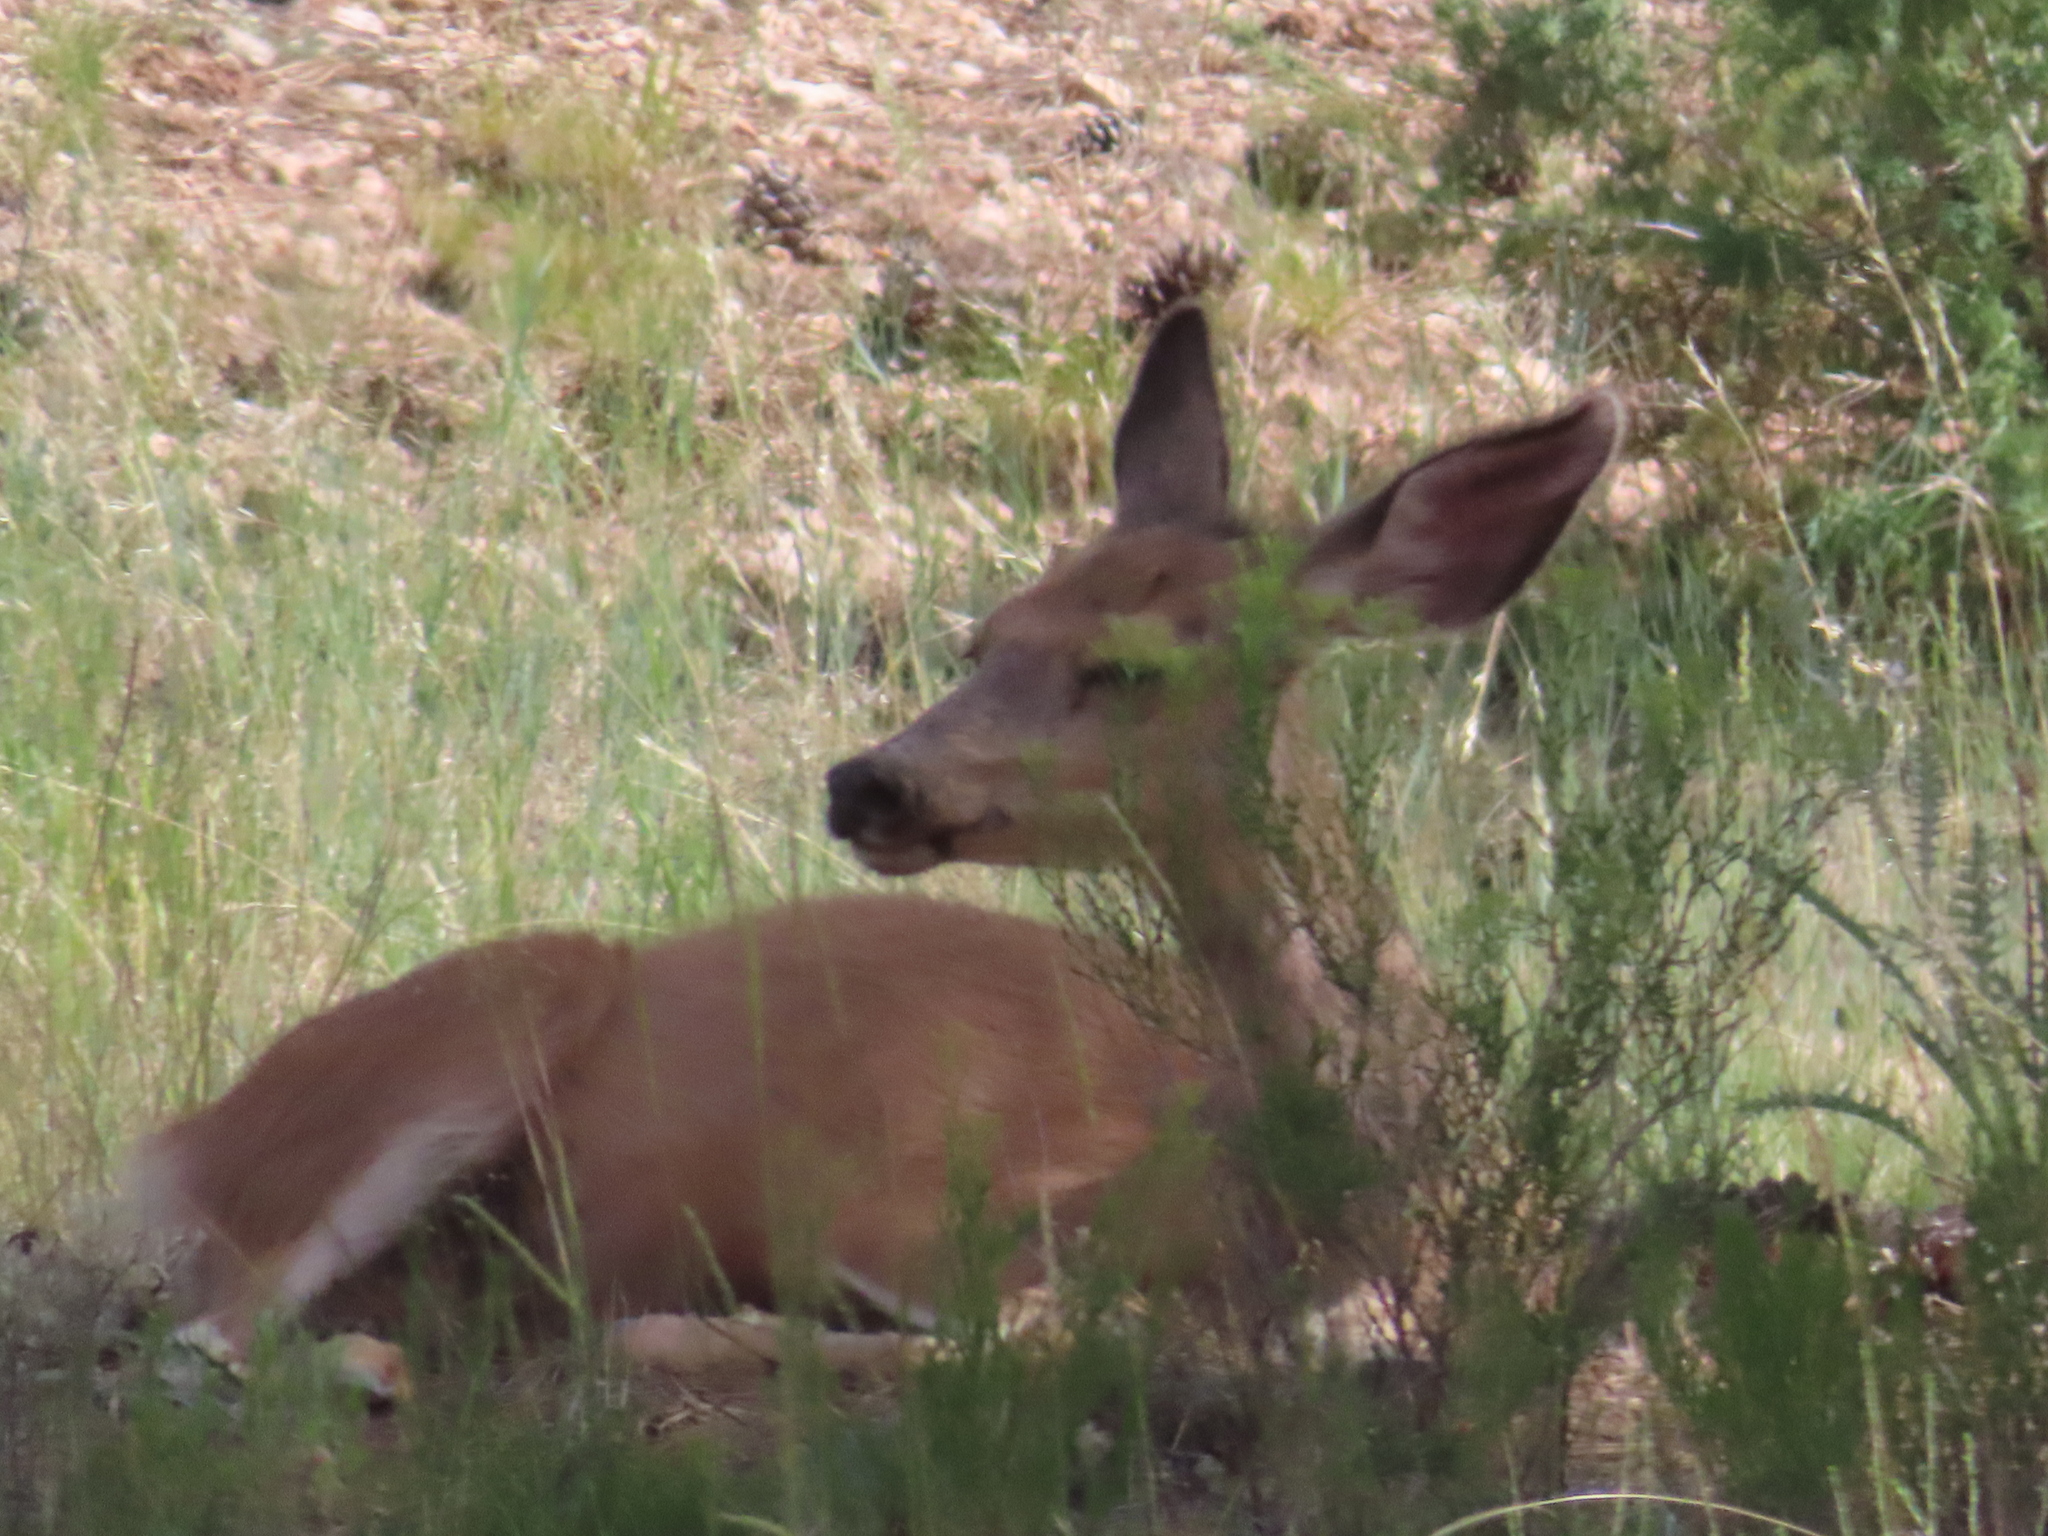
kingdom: Animalia
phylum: Chordata
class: Mammalia
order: Artiodactyla
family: Cervidae
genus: Odocoileus
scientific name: Odocoileus hemionus
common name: Mule deer
